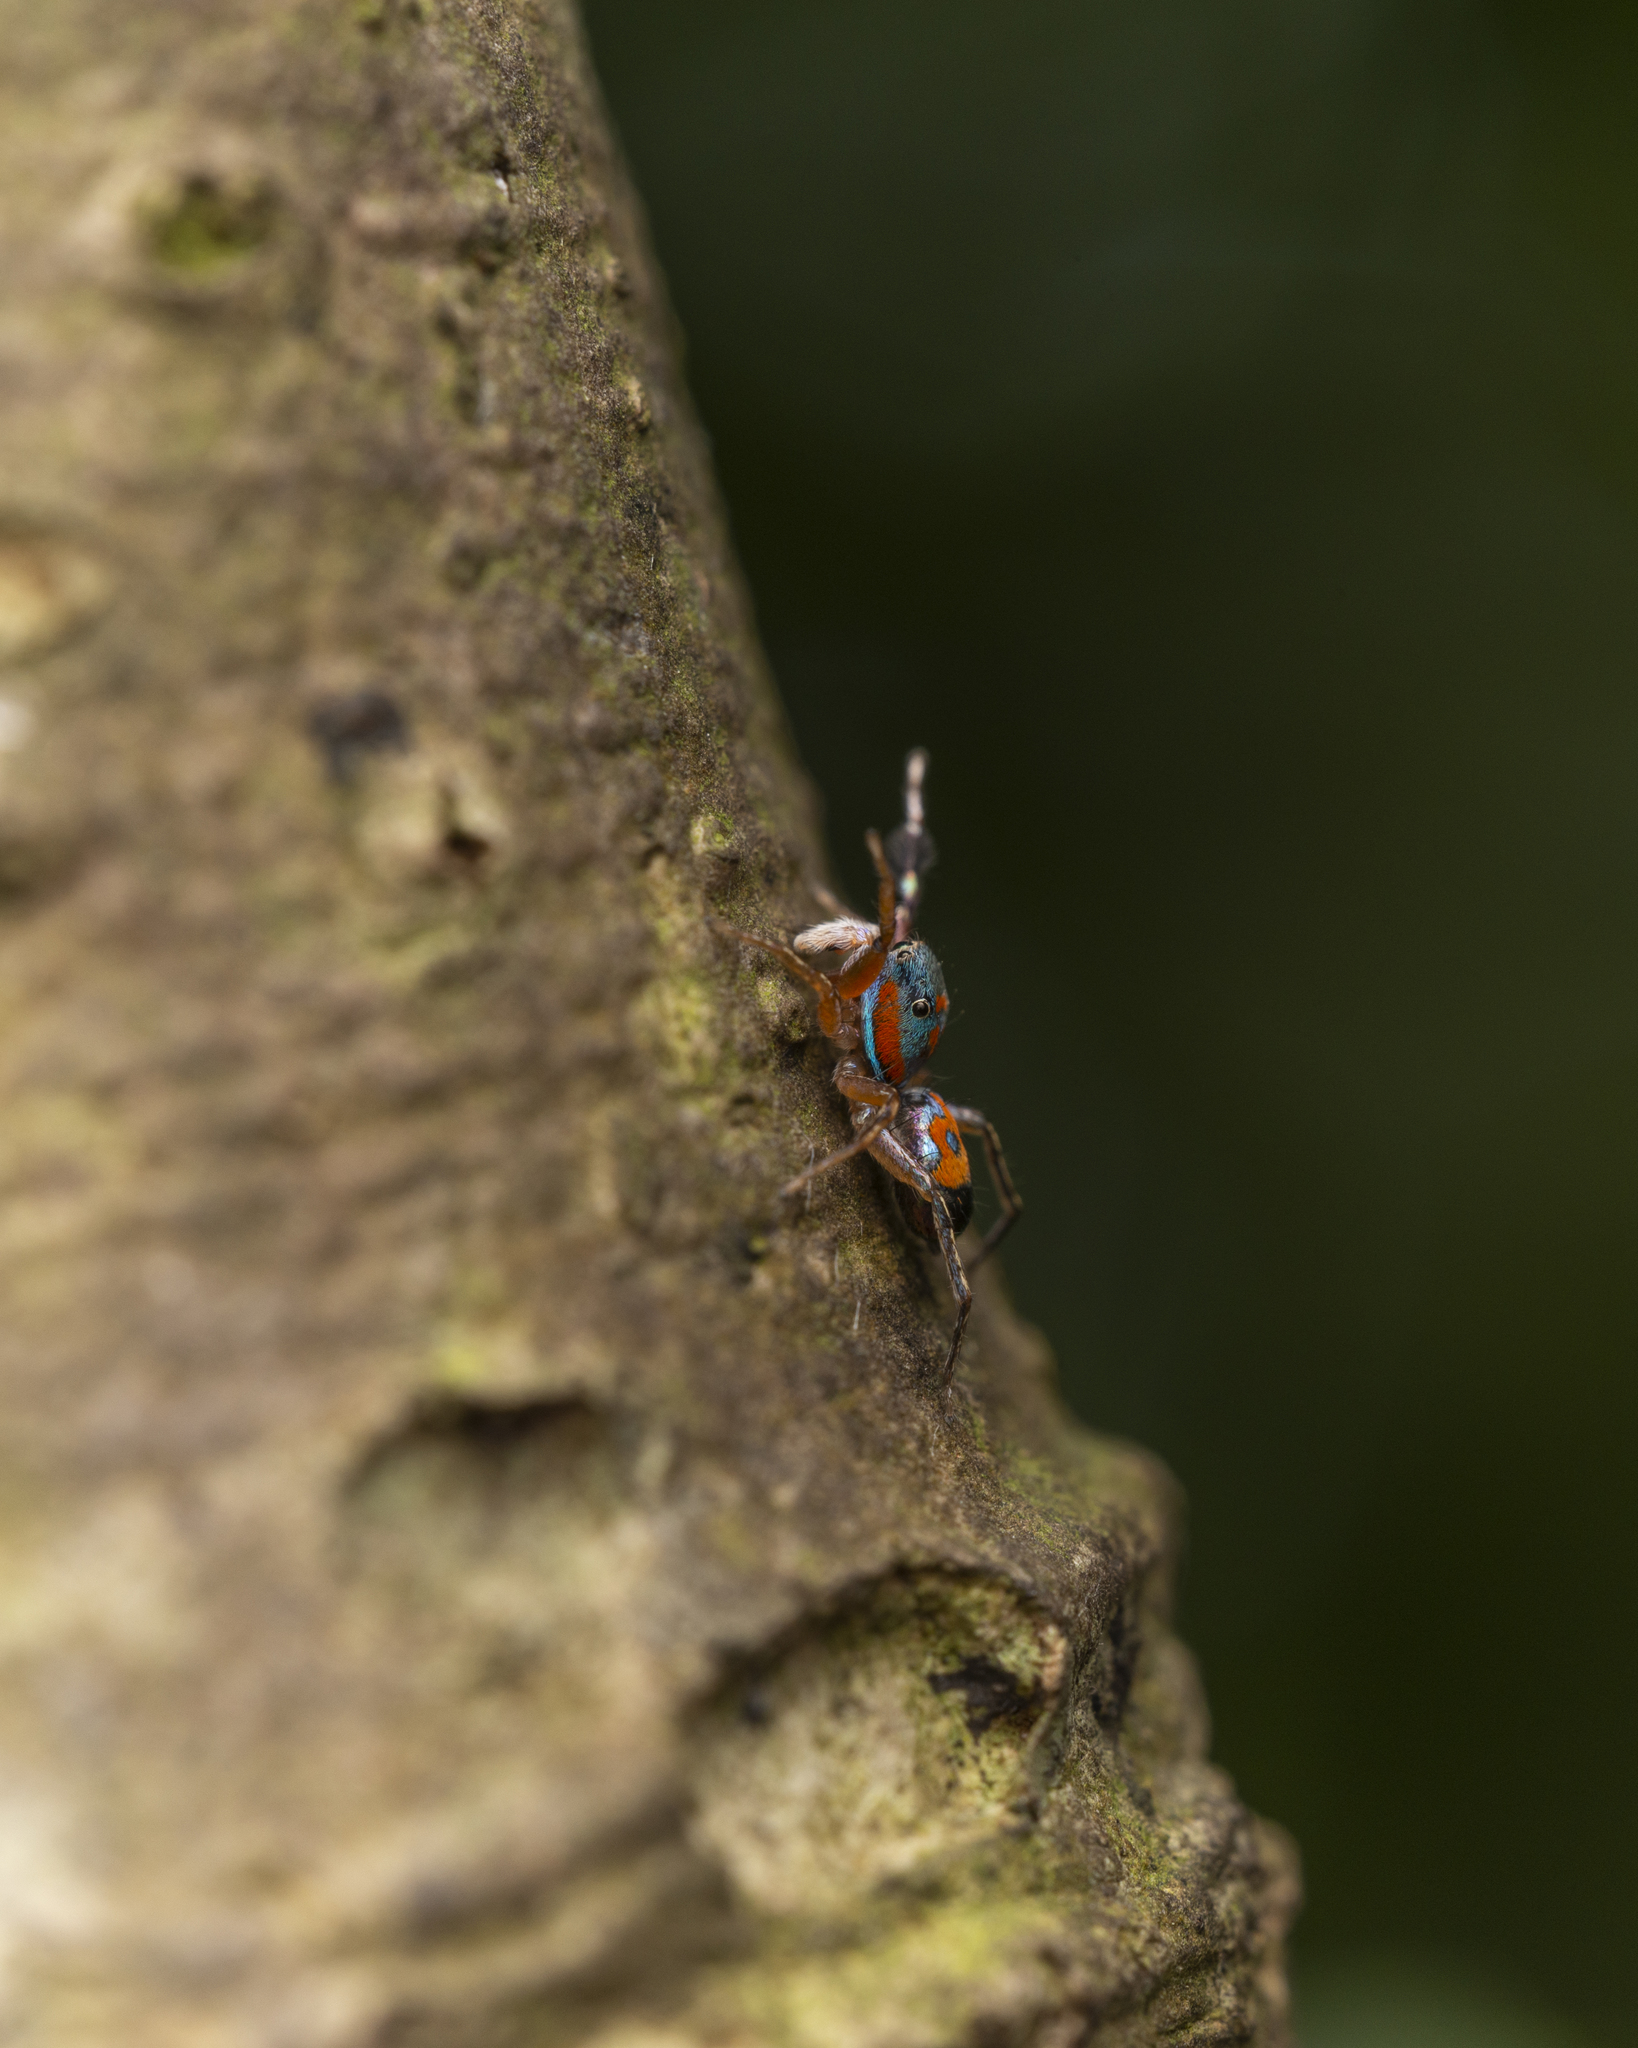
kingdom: Animalia
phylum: Arthropoda
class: Arachnida
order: Araneae
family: Salticidae
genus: Siler
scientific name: Siler collingwoodi
